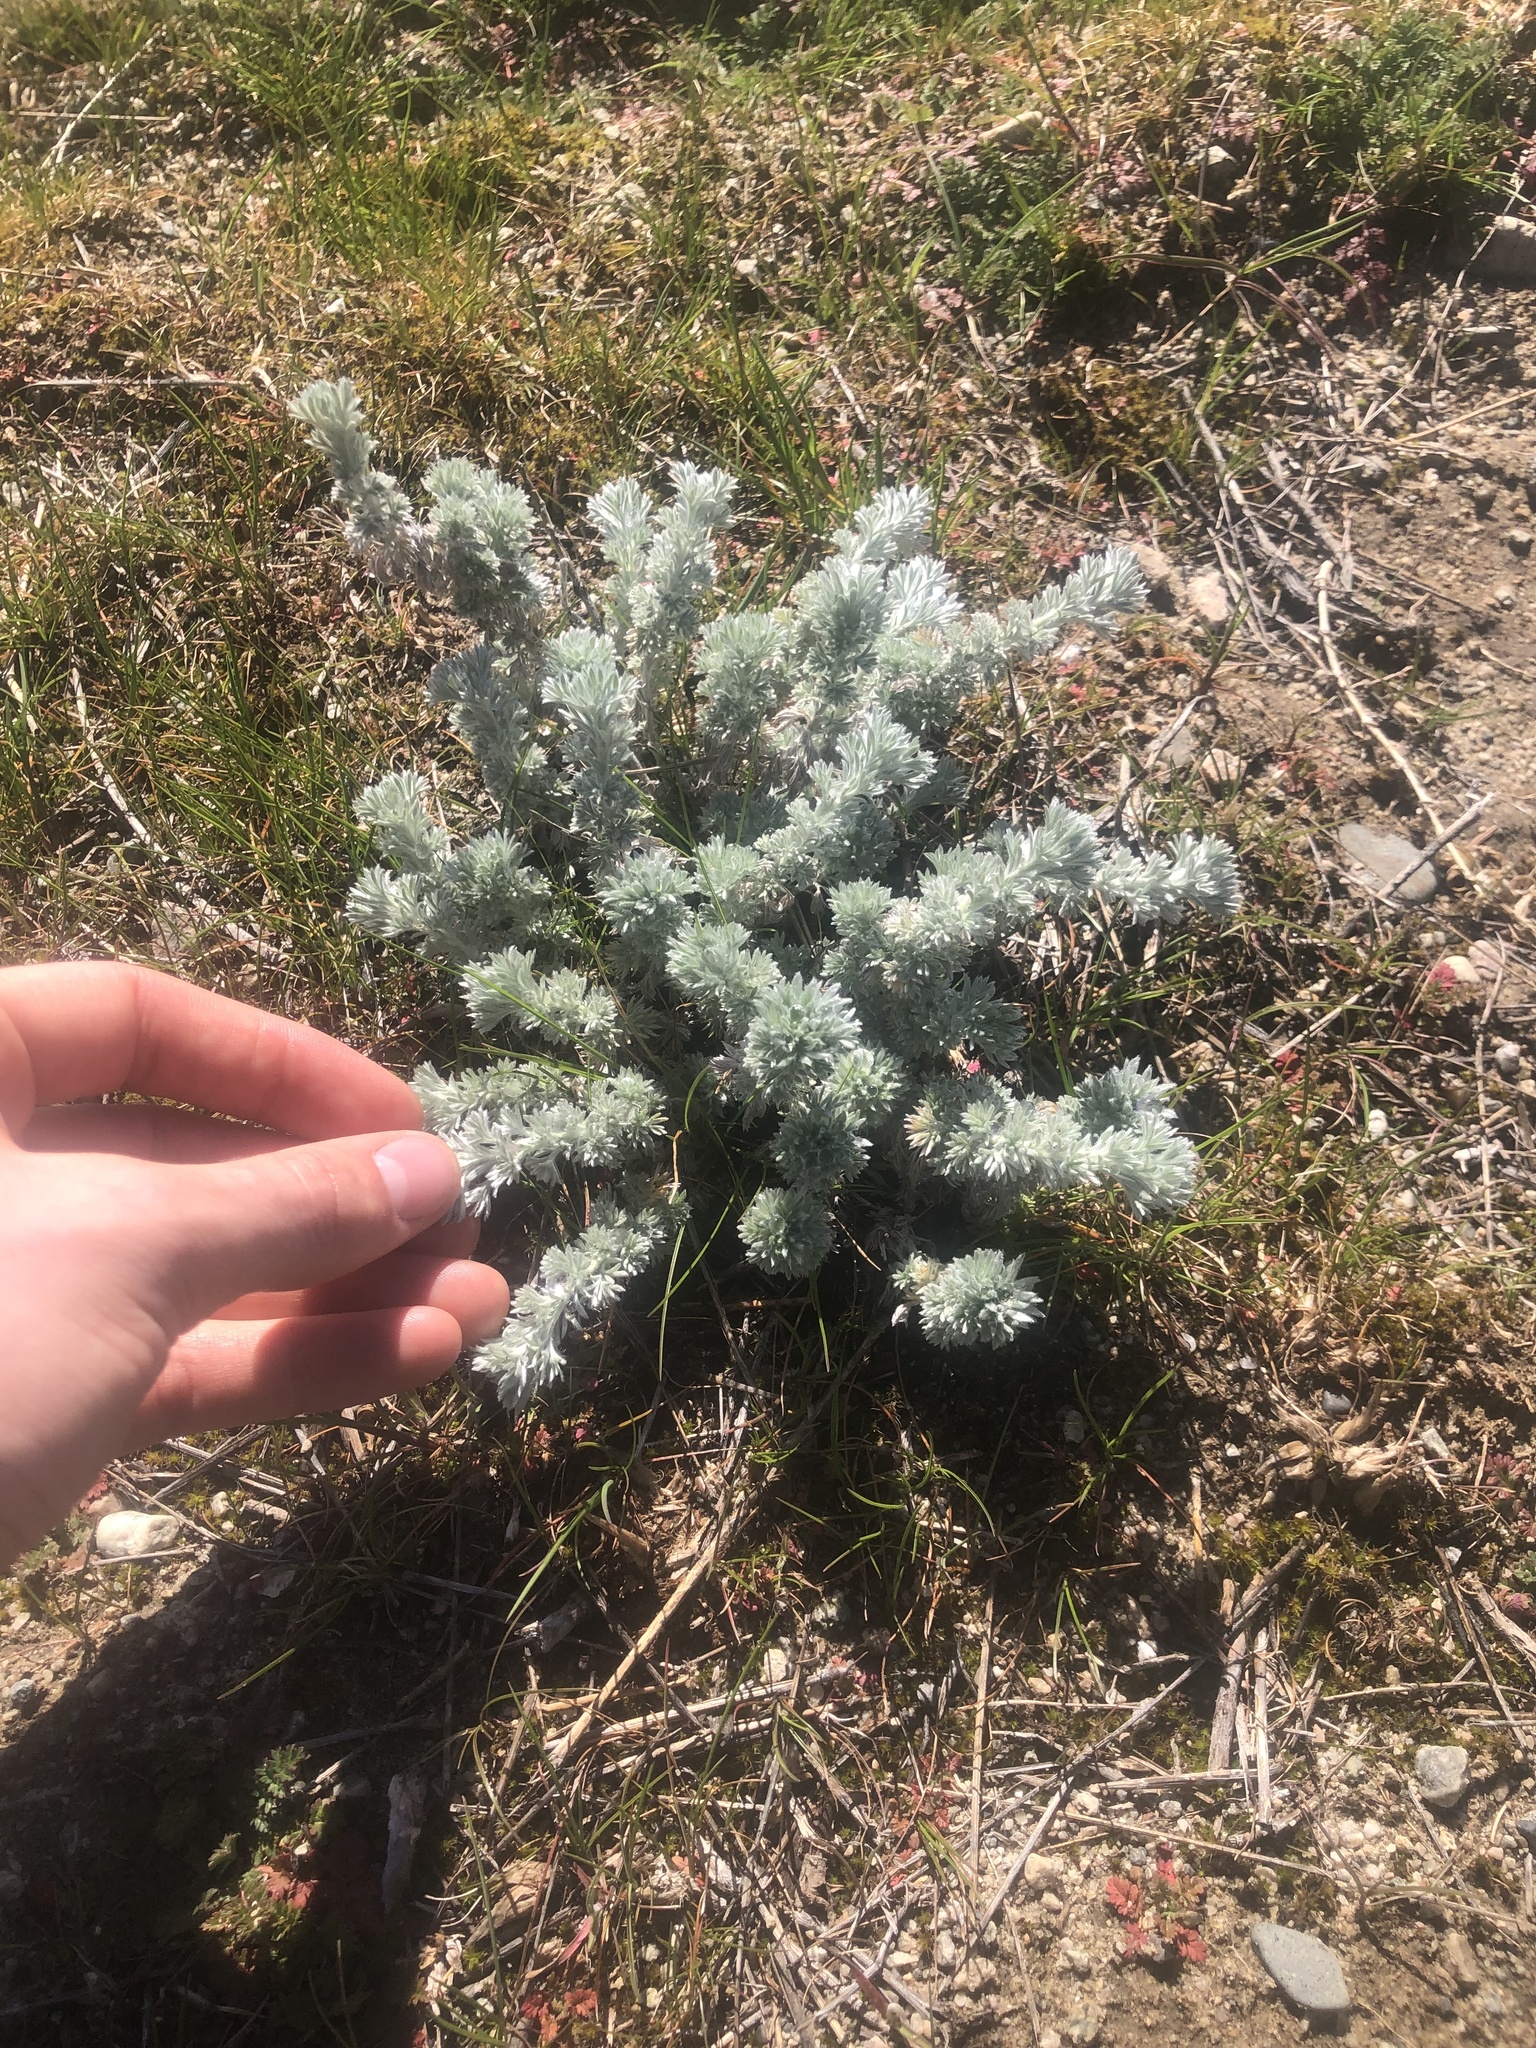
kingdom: Plantae
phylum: Tracheophyta
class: Magnoliopsida
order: Asterales
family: Asteraceae
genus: Artemisia
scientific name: Artemisia frigida
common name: Prairie sagewort
